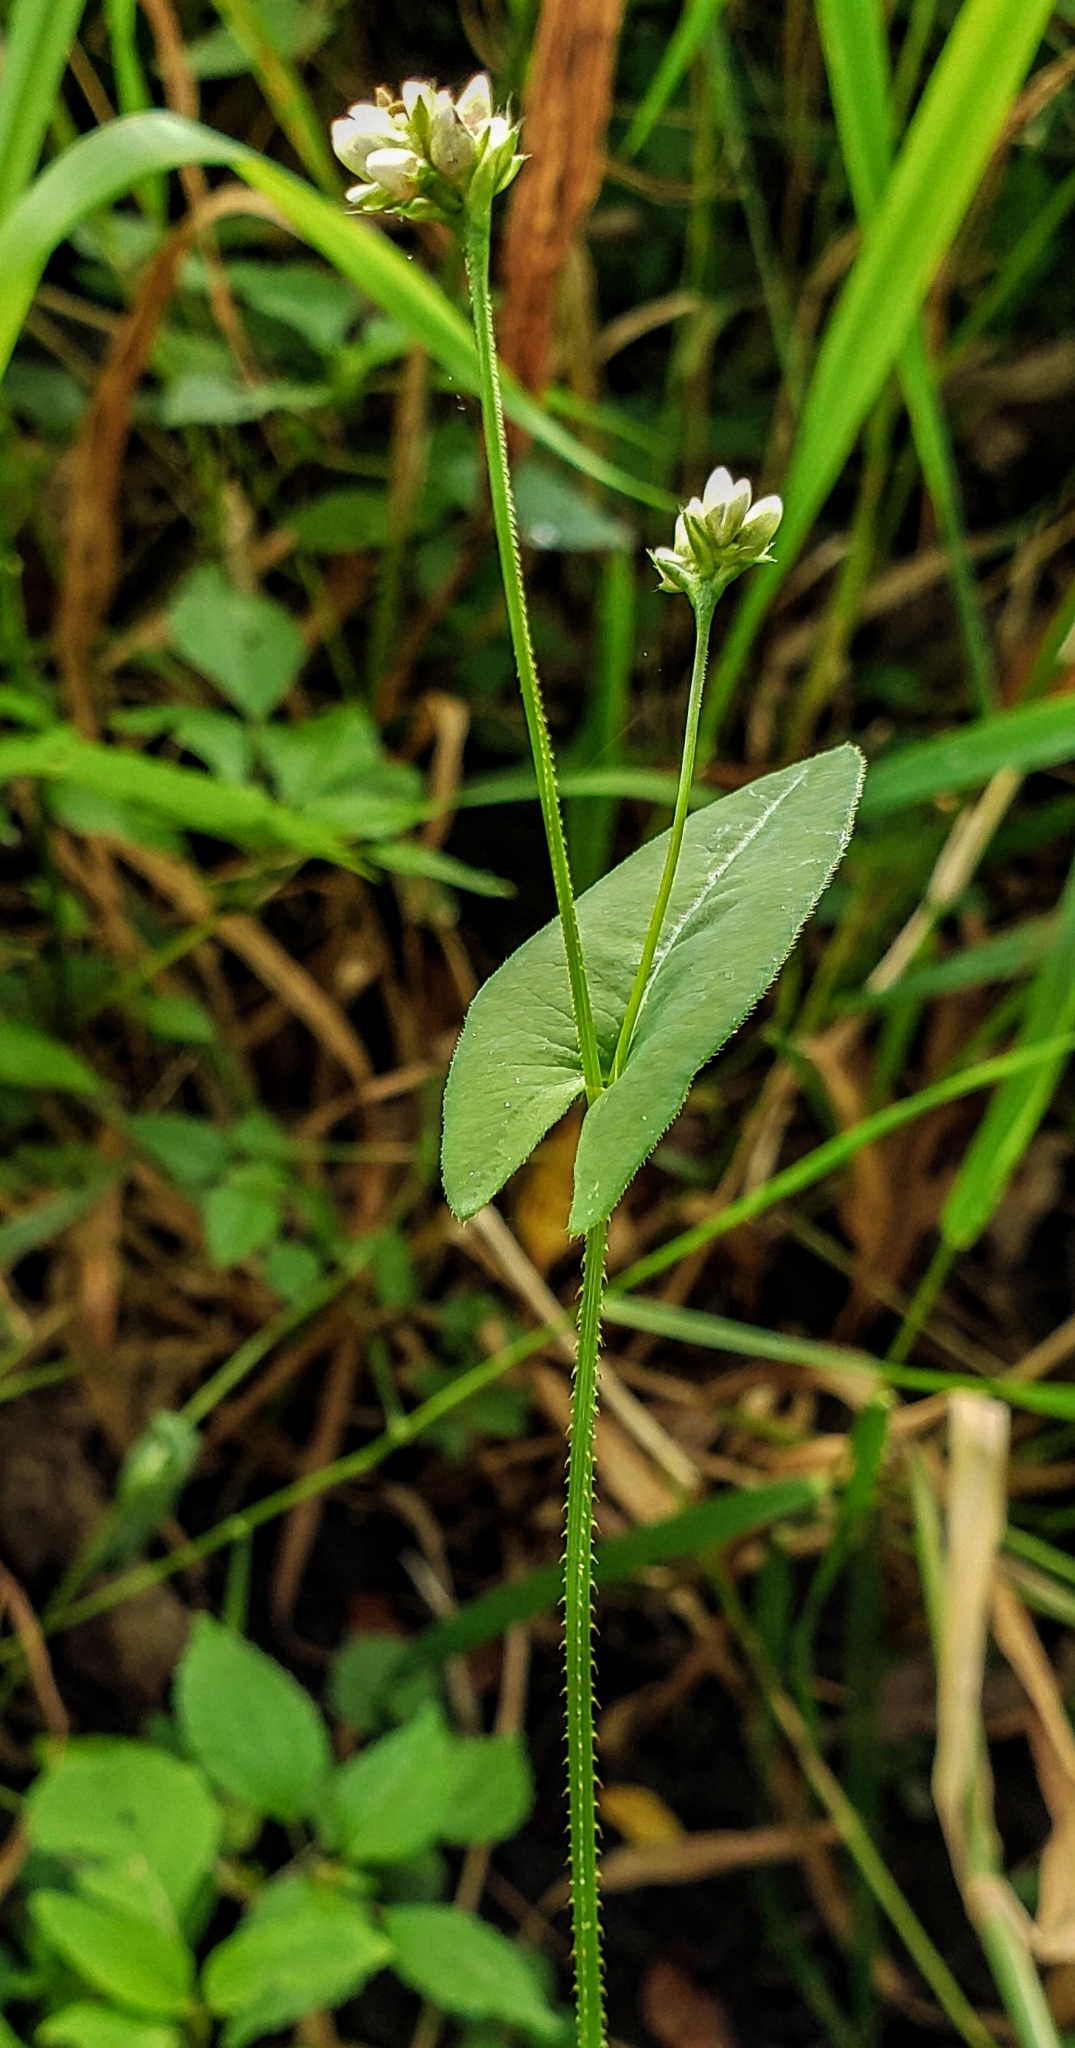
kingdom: Plantae
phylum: Tracheophyta
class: Magnoliopsida
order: Caryophyllales
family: Polygonaceae
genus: Persicaria
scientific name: Persicaria sagittata
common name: American tearthumb
